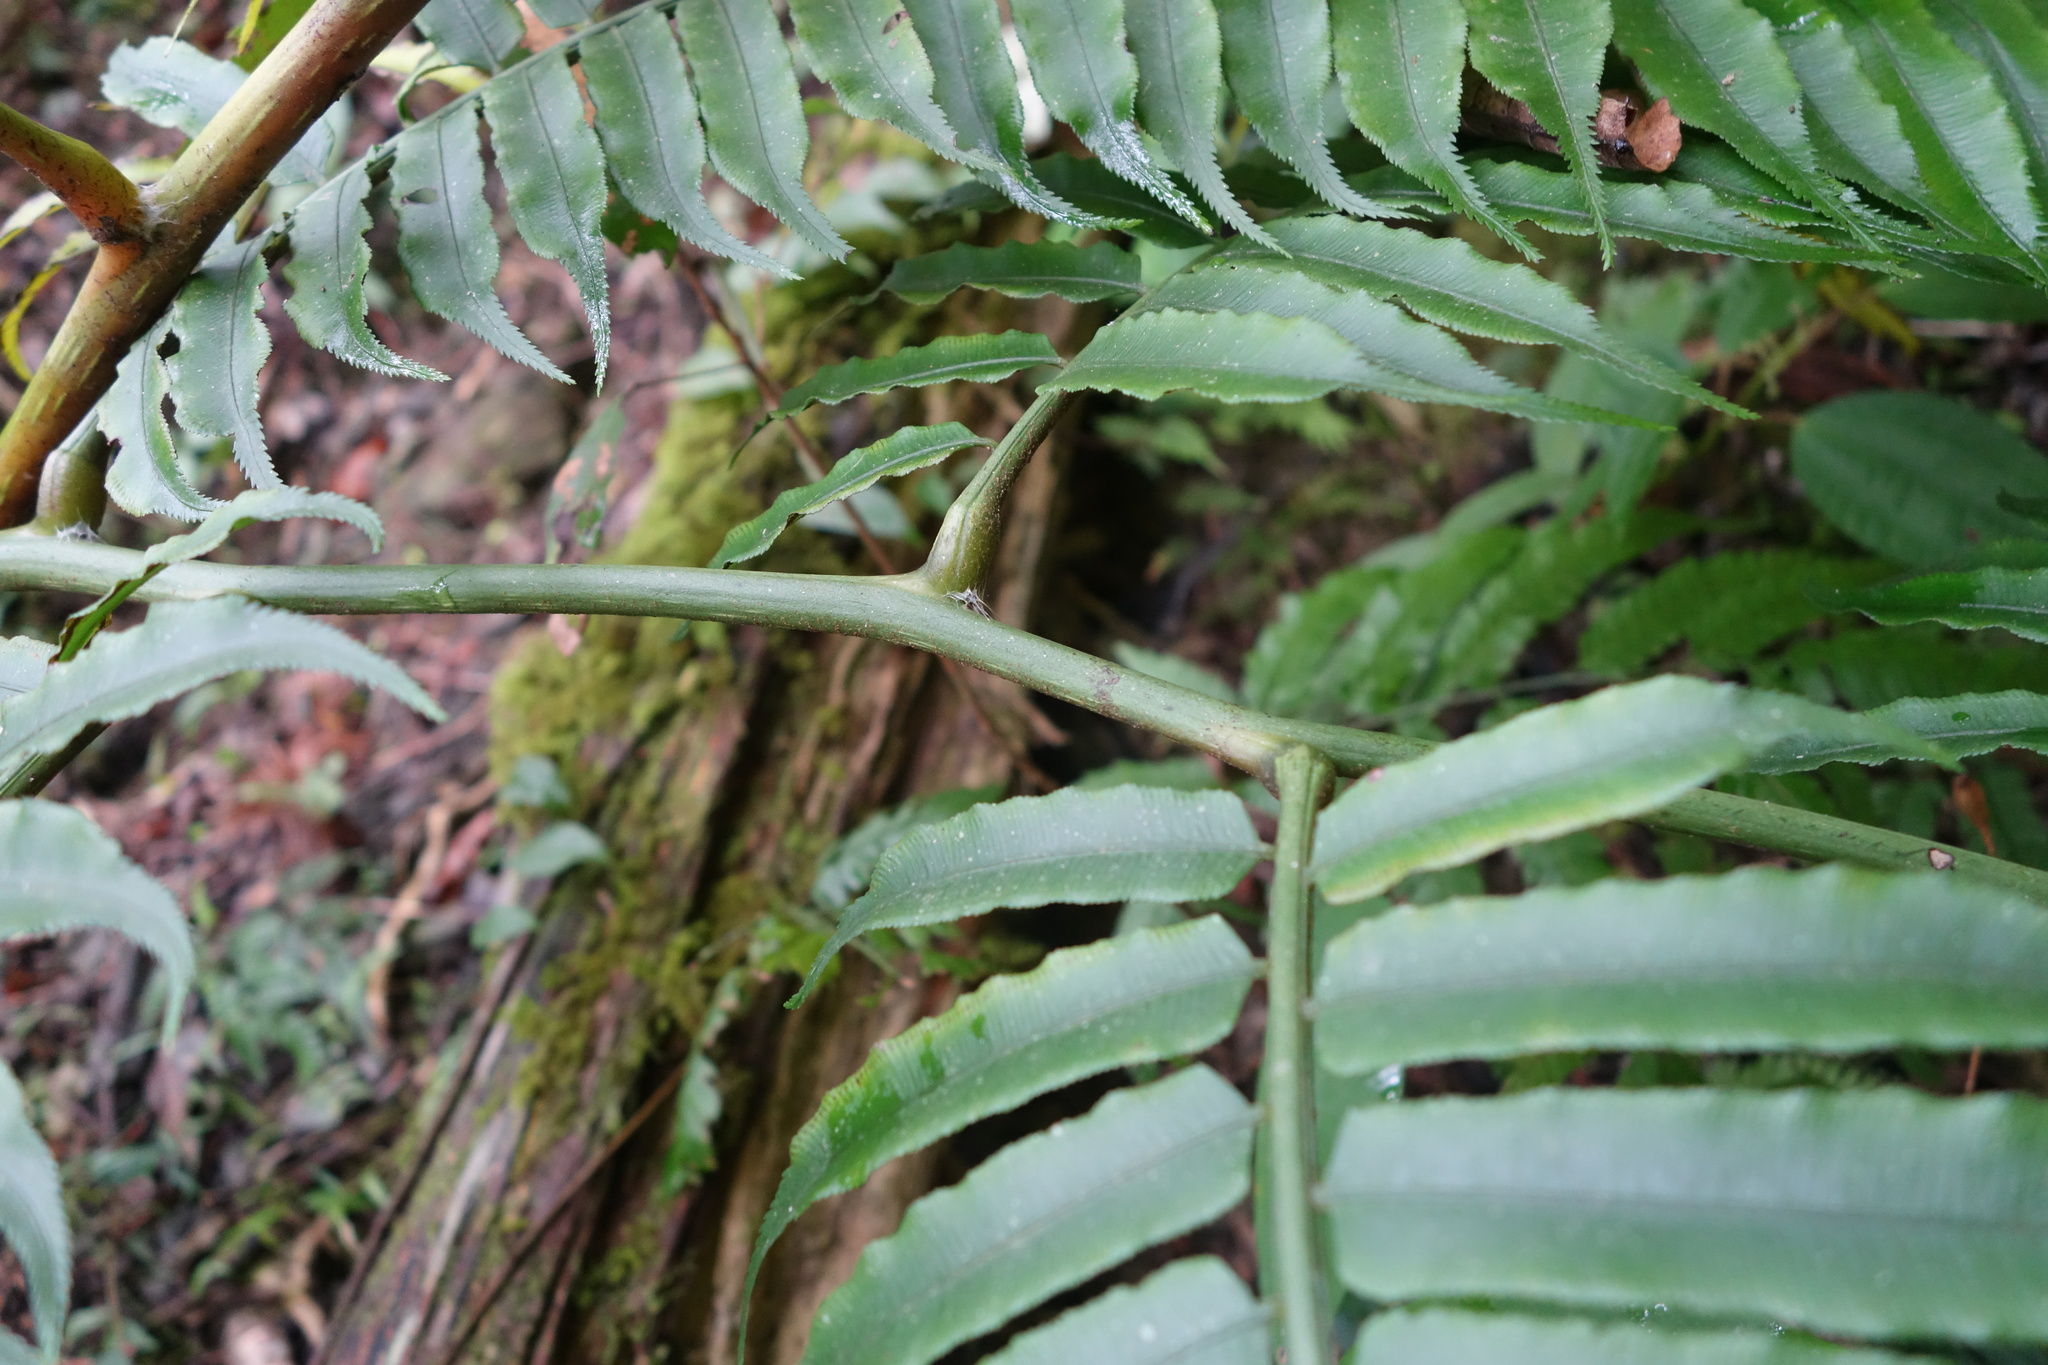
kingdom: Plantae
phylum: Tracheophyta
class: Polypodiopsida
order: Marattiales
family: Marattiaceae
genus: Angiopteris
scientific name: Angiopteris lygodiifolia
